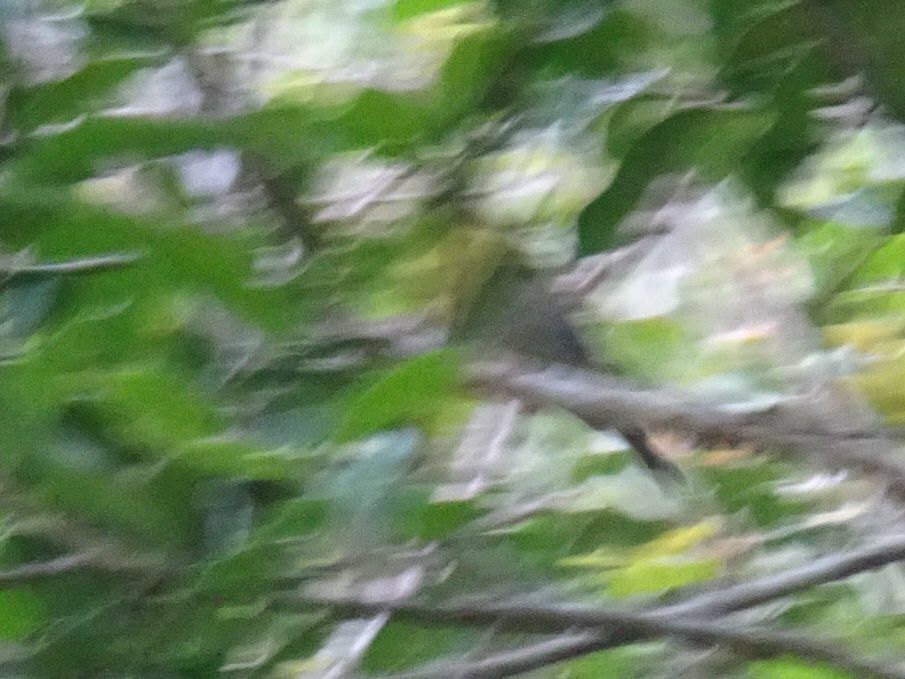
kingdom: Animalia
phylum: Chordata
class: Aves
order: Passeriformes
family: Phylloscopidae
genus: Phylloscopus
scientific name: Phylloscopus ruficapilla
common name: Yellow-throated woodland warbler
